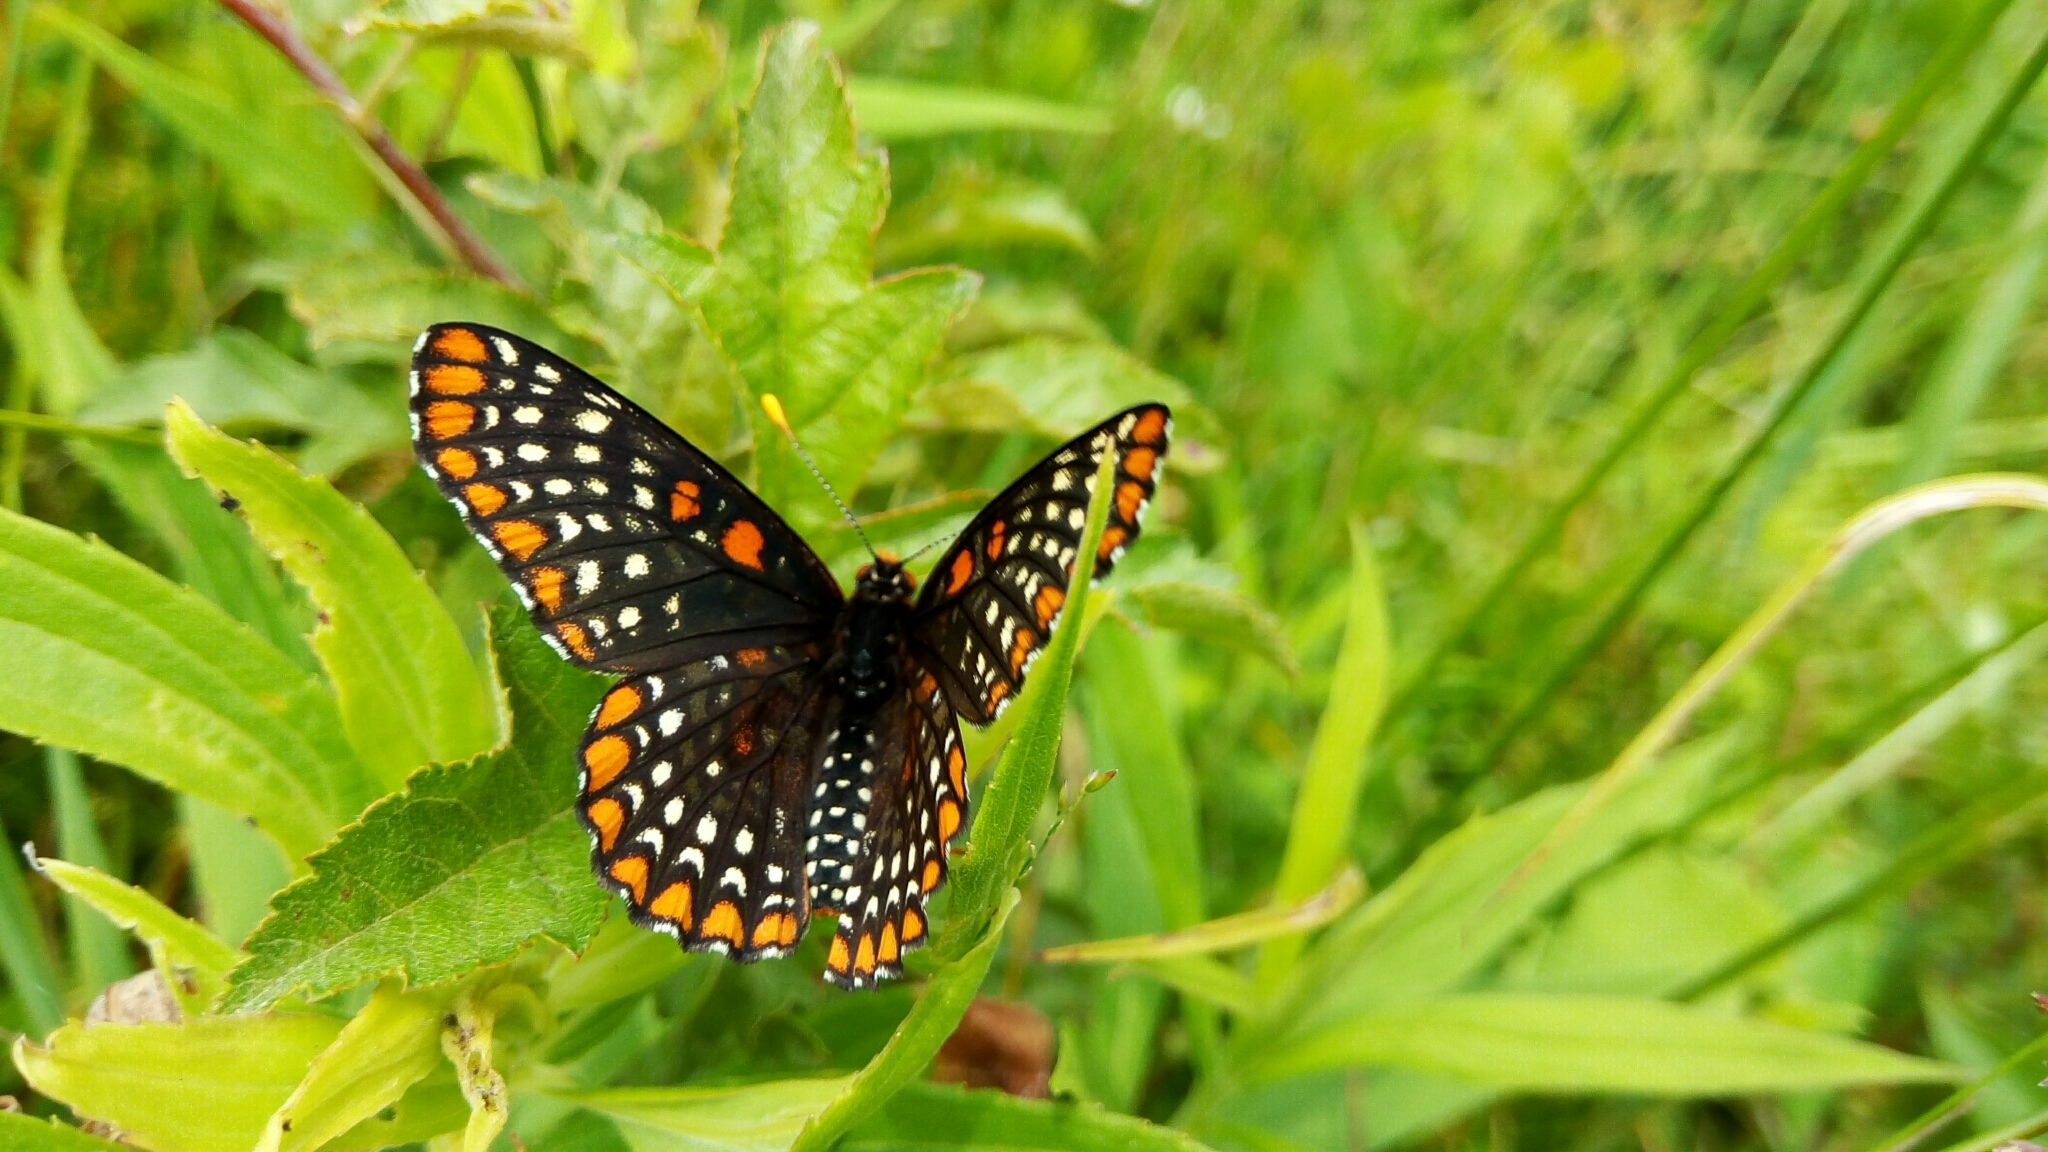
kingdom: Animalia
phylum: Arthropoda
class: Insecta
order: Lepidoptera
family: Nymphalidae
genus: Euphydryas
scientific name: Euphydryas phaeton
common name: Baltimore checkerspot
